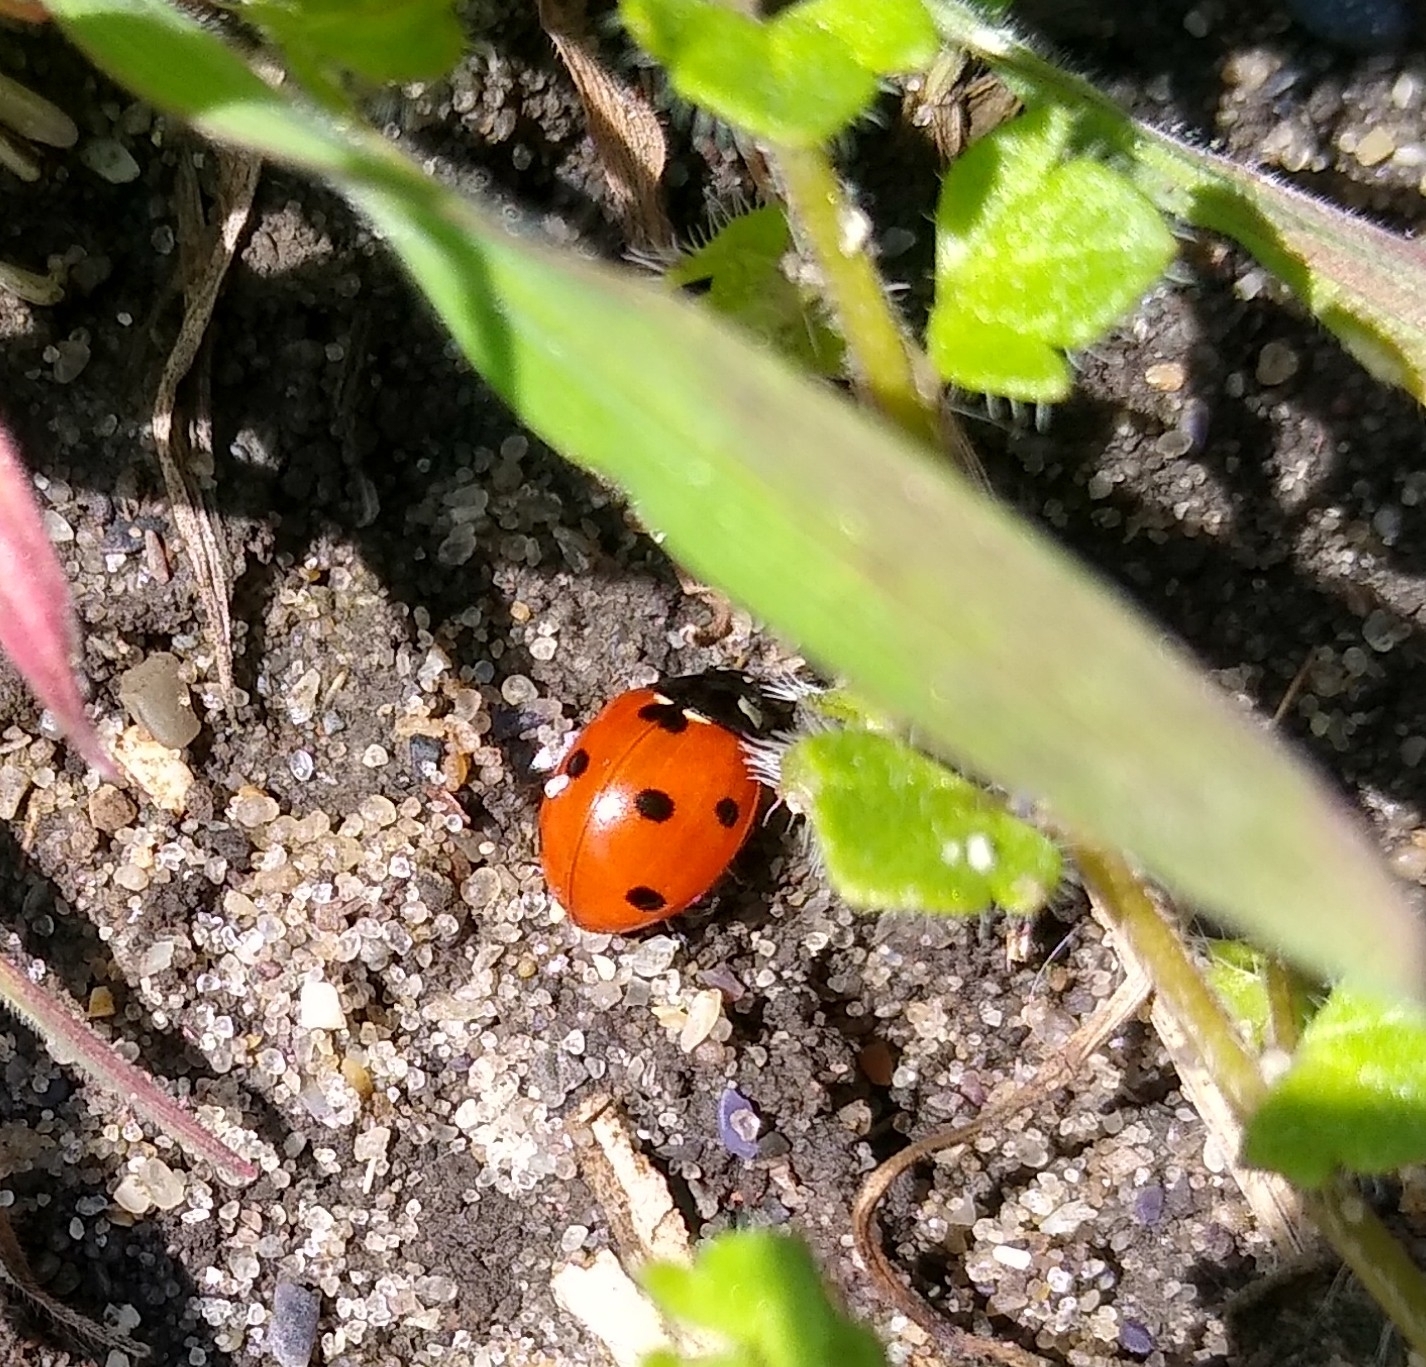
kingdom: Animalia
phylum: Arthropoda
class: Insecta
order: Coleoptera
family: Coccinellidae
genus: Coccinella
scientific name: Coccinella septempunctata
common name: Sevenspotted lady beetle
